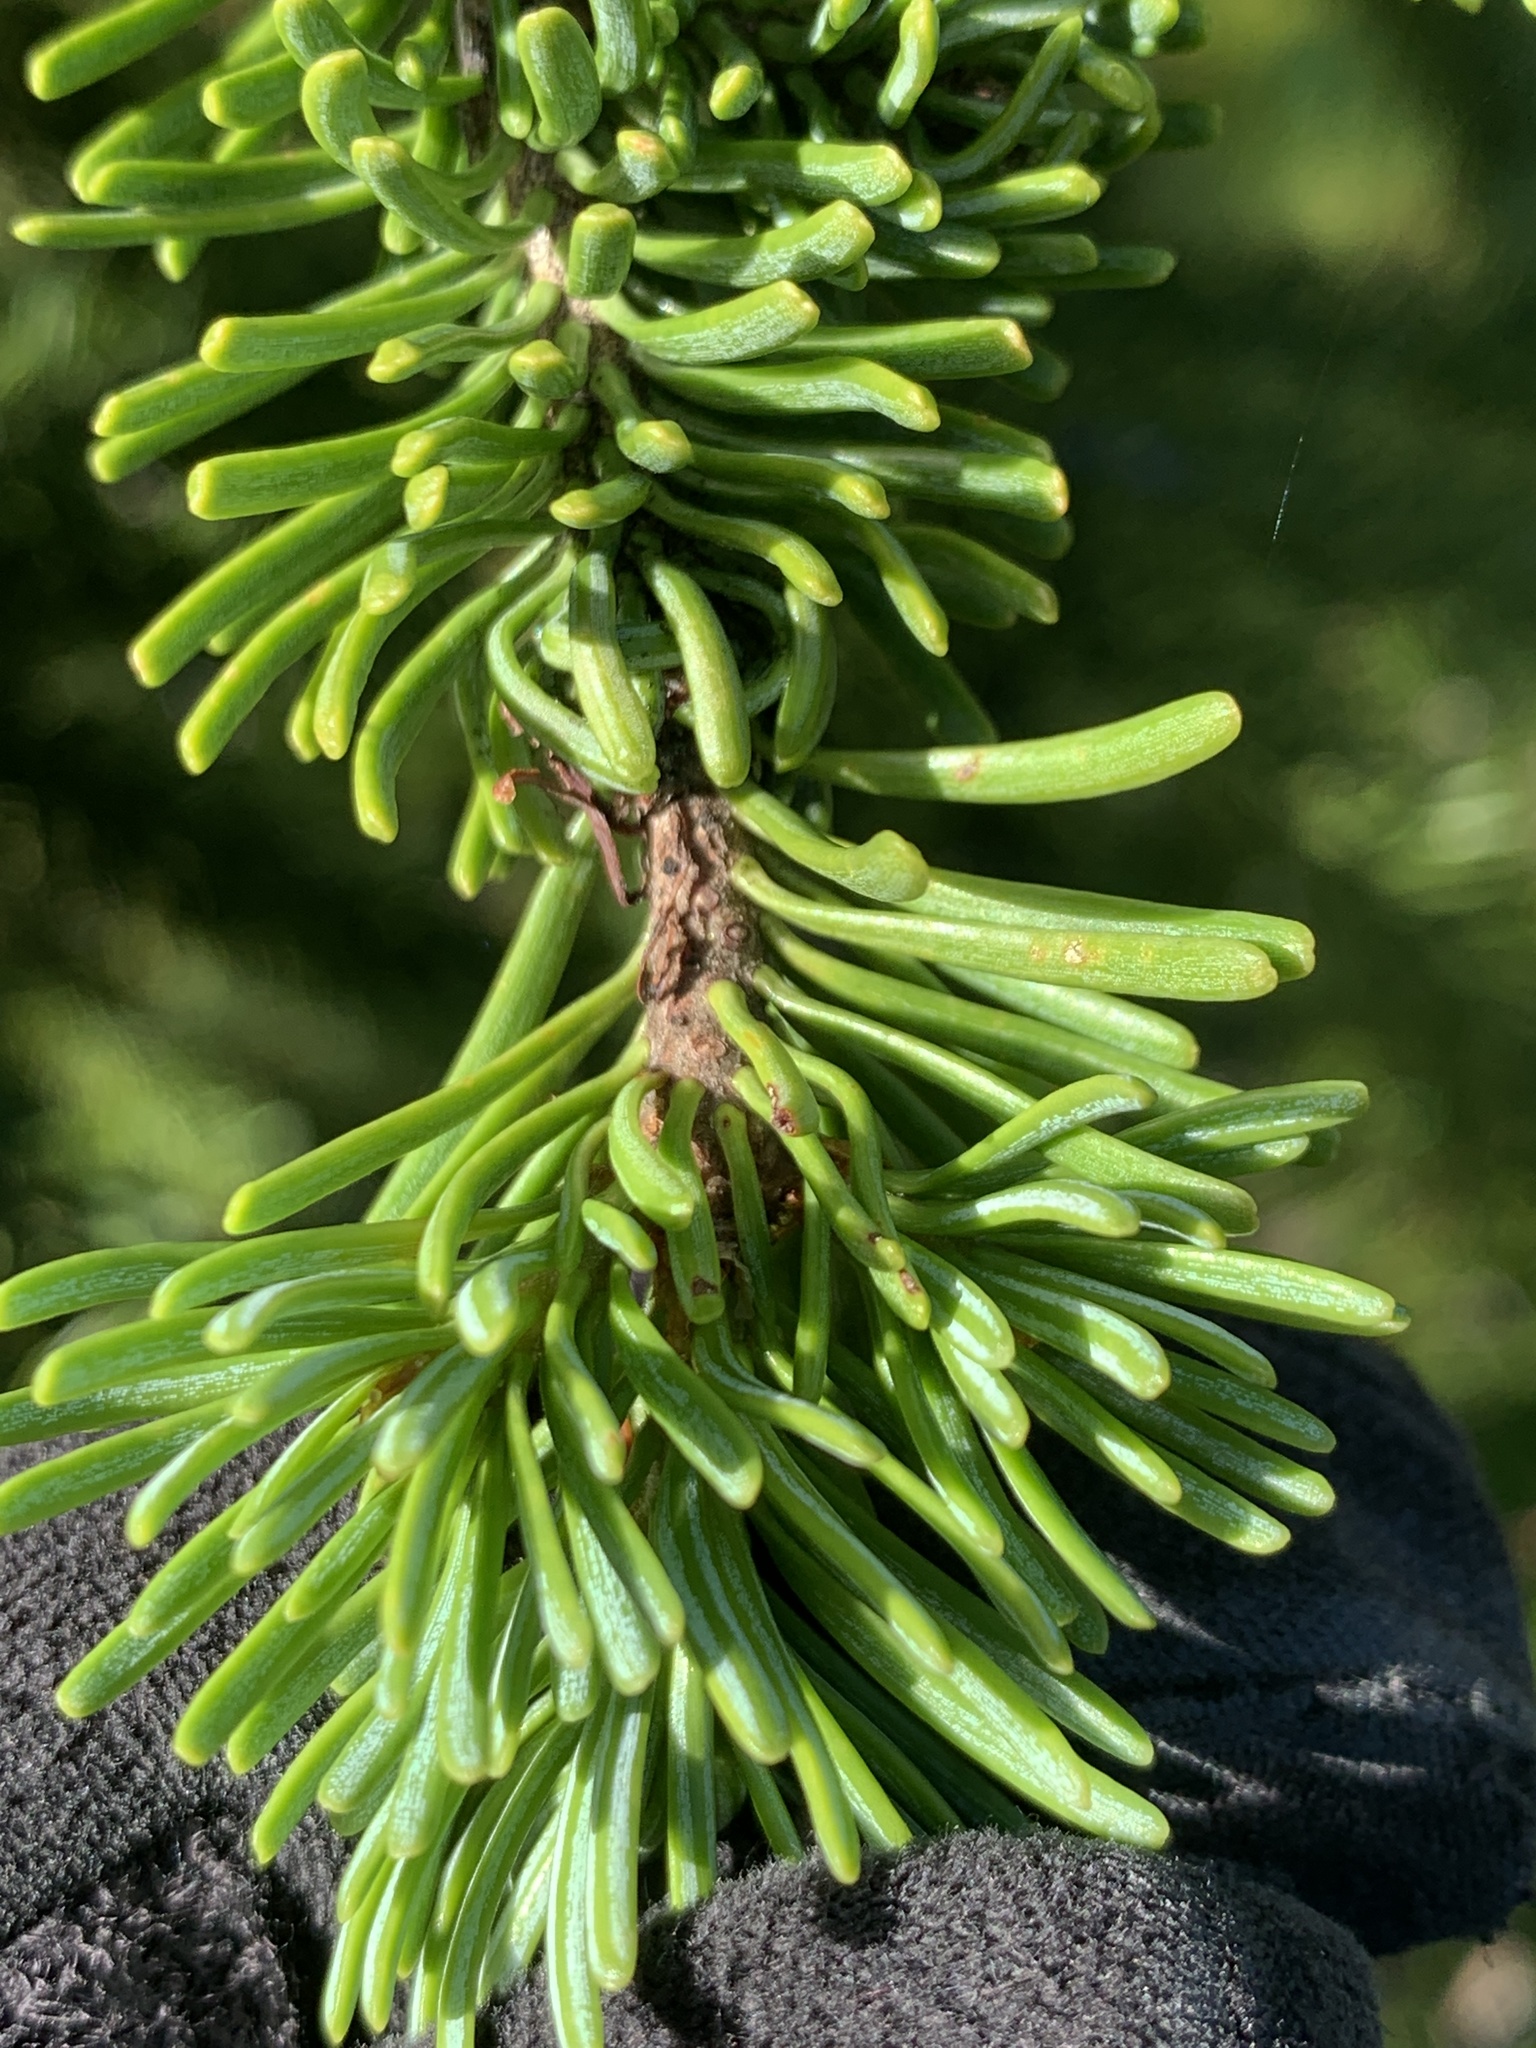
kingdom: Plantae
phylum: Tracheophyta
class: Pinopsida
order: Pinales
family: Pinaceae
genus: Abies
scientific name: Abies lasiocarpa
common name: Subalpine fir
